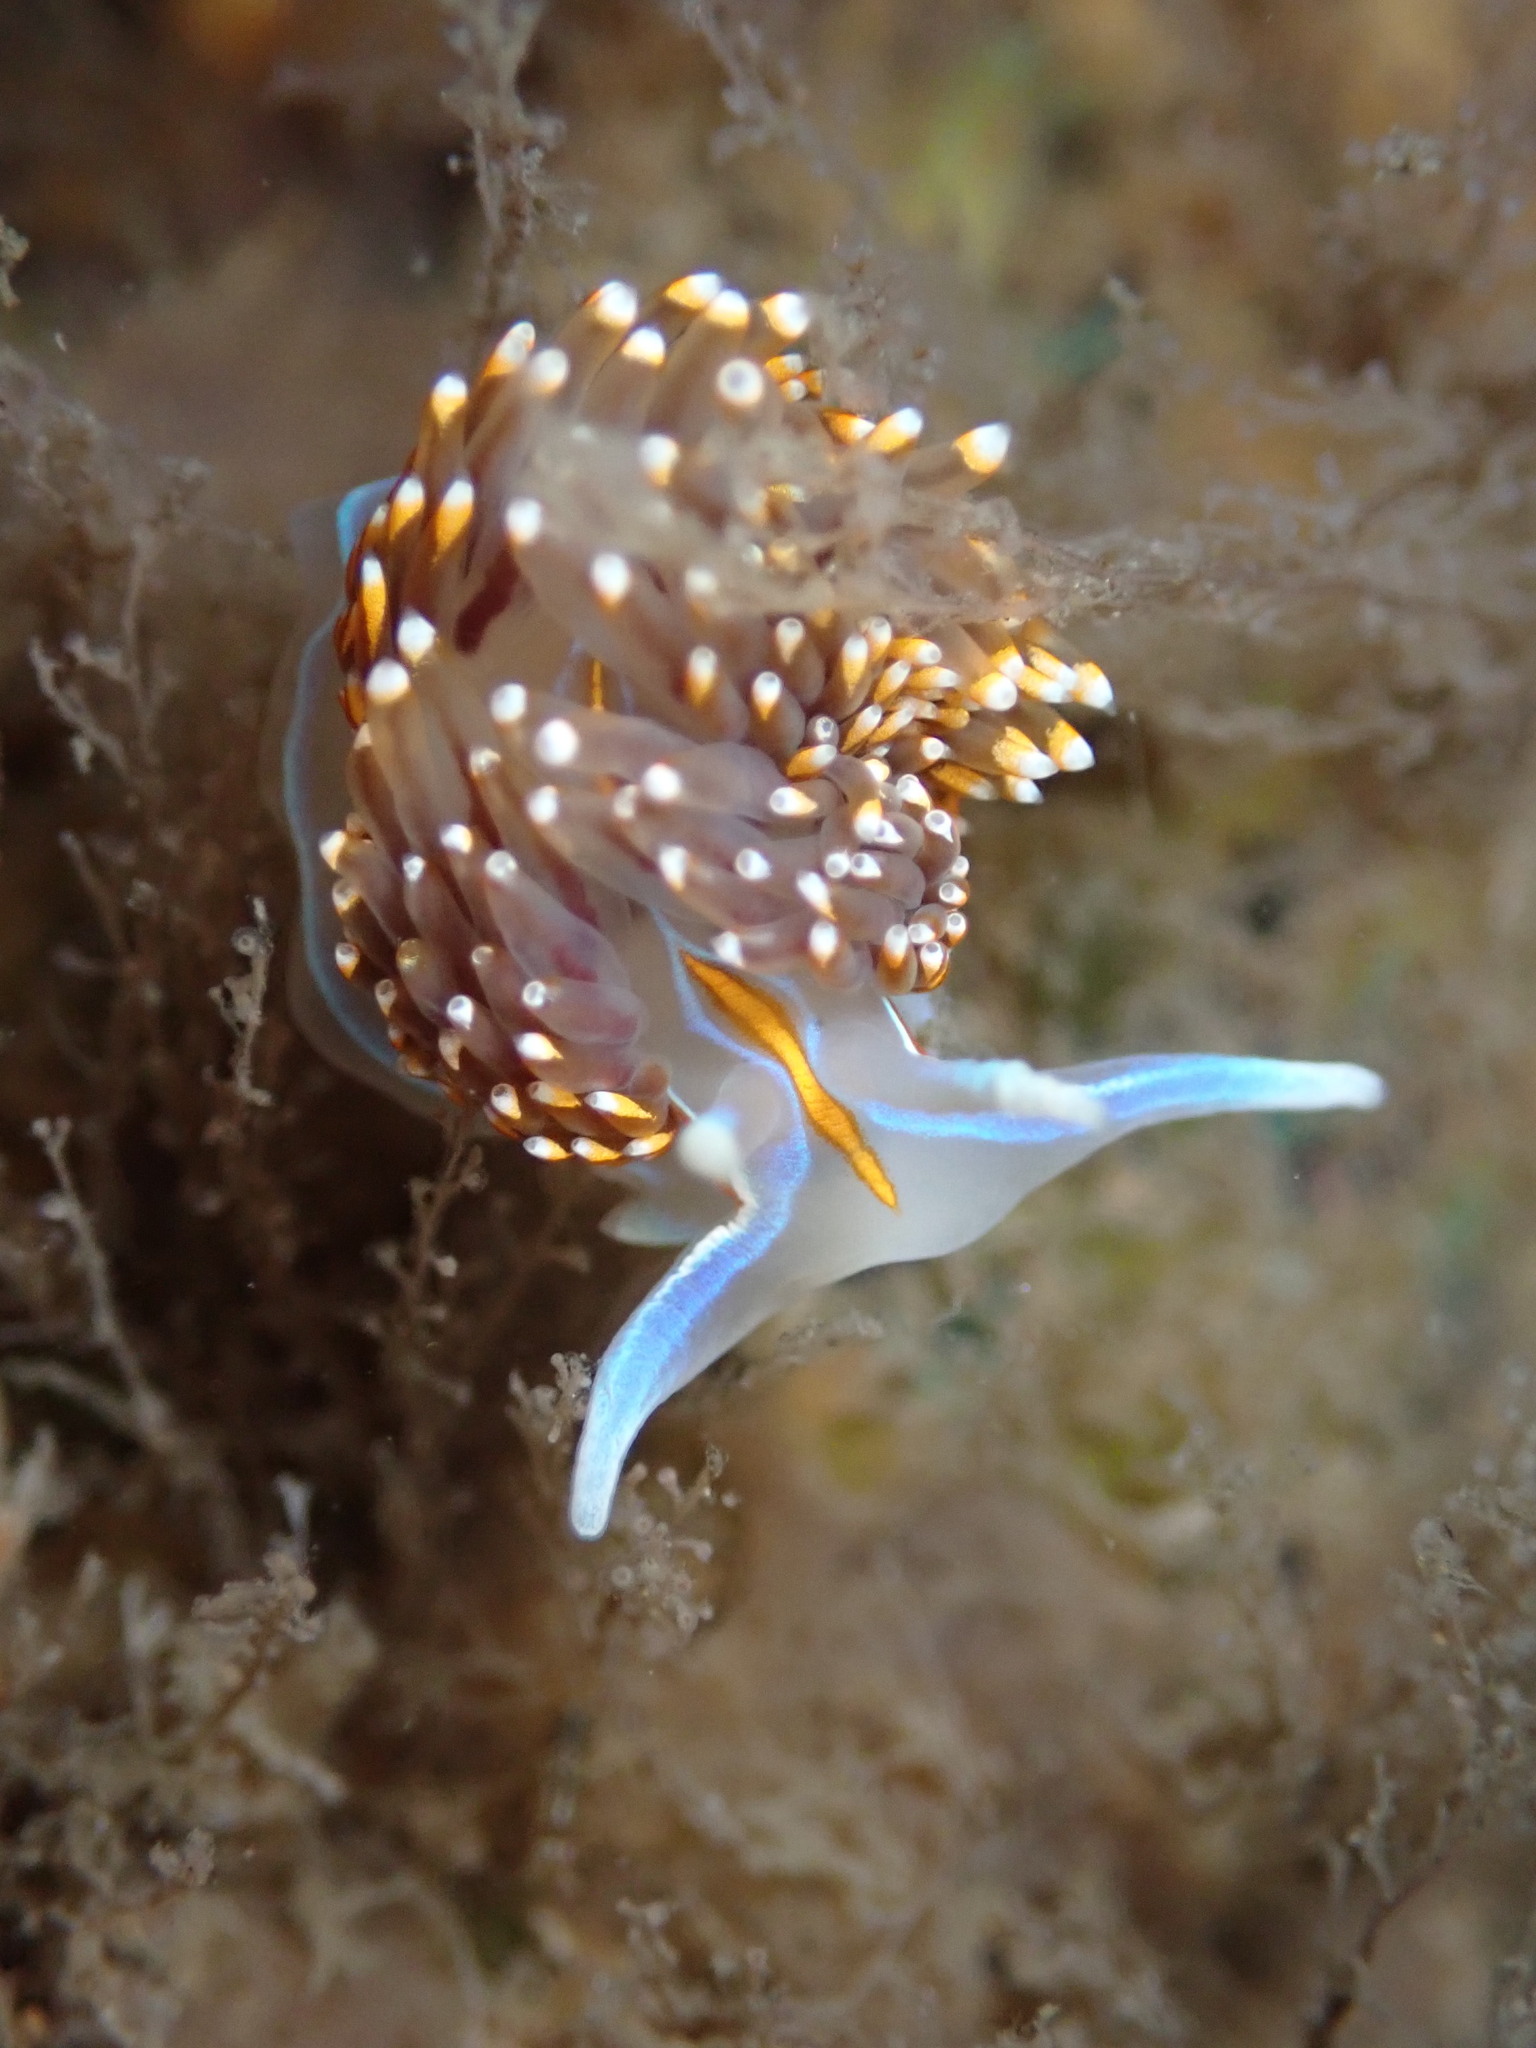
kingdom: Animalia
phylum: Mollusca
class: Gastropoda
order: Nudibranchia
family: Myrrhinidae
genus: Hermissenda
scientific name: Hermissenda opalescens
